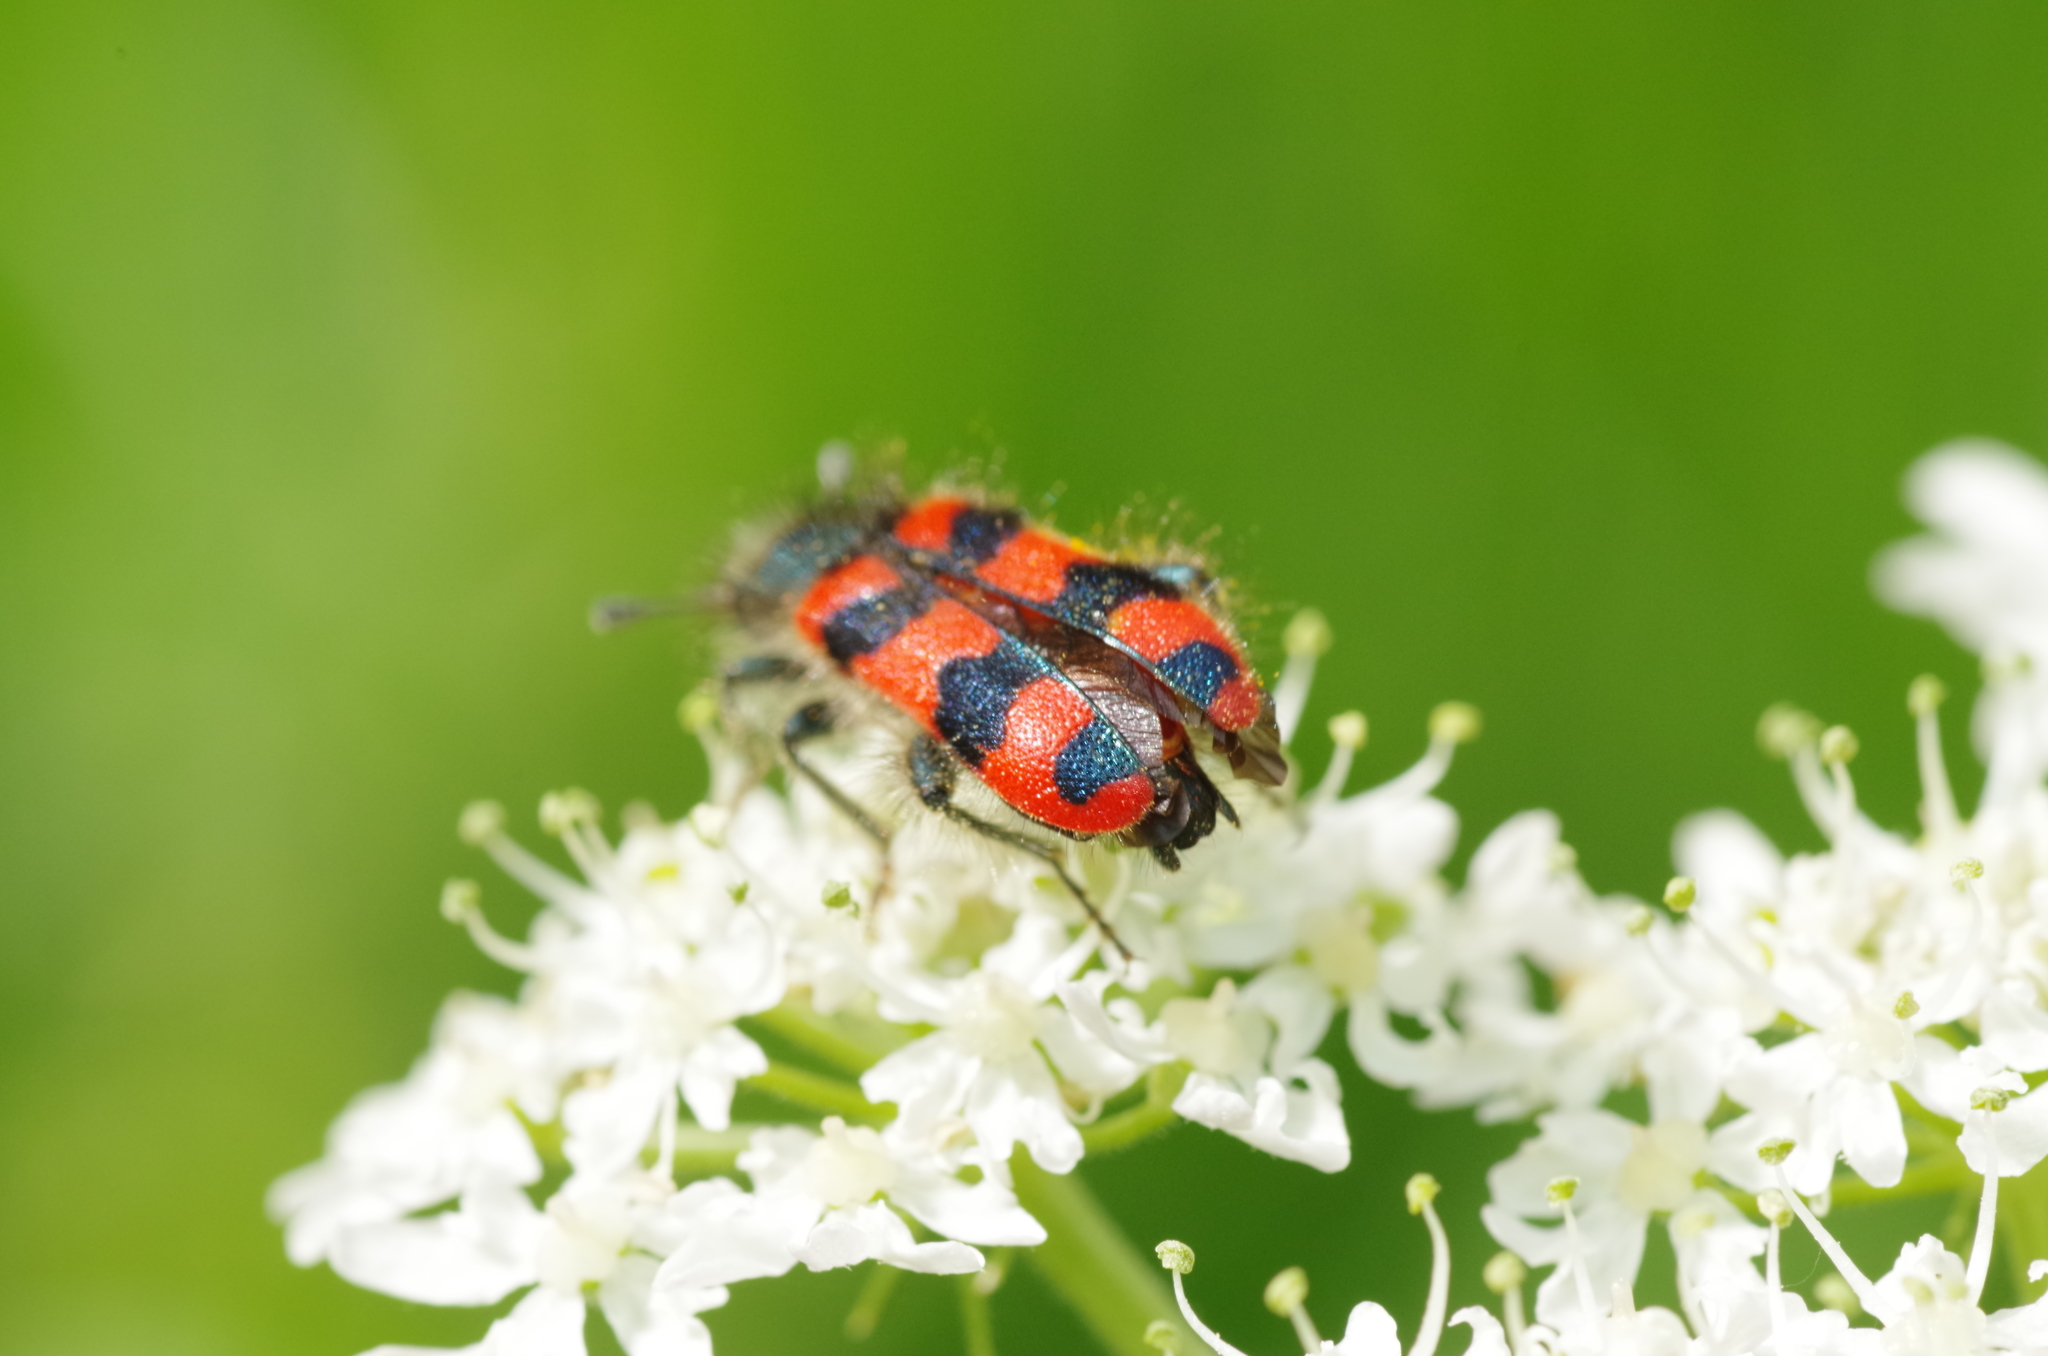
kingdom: Animalia
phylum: Arthropoda
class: Insecta
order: Coleoptera
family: Cleridae
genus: Trichodes
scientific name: Trichodes alvearius
